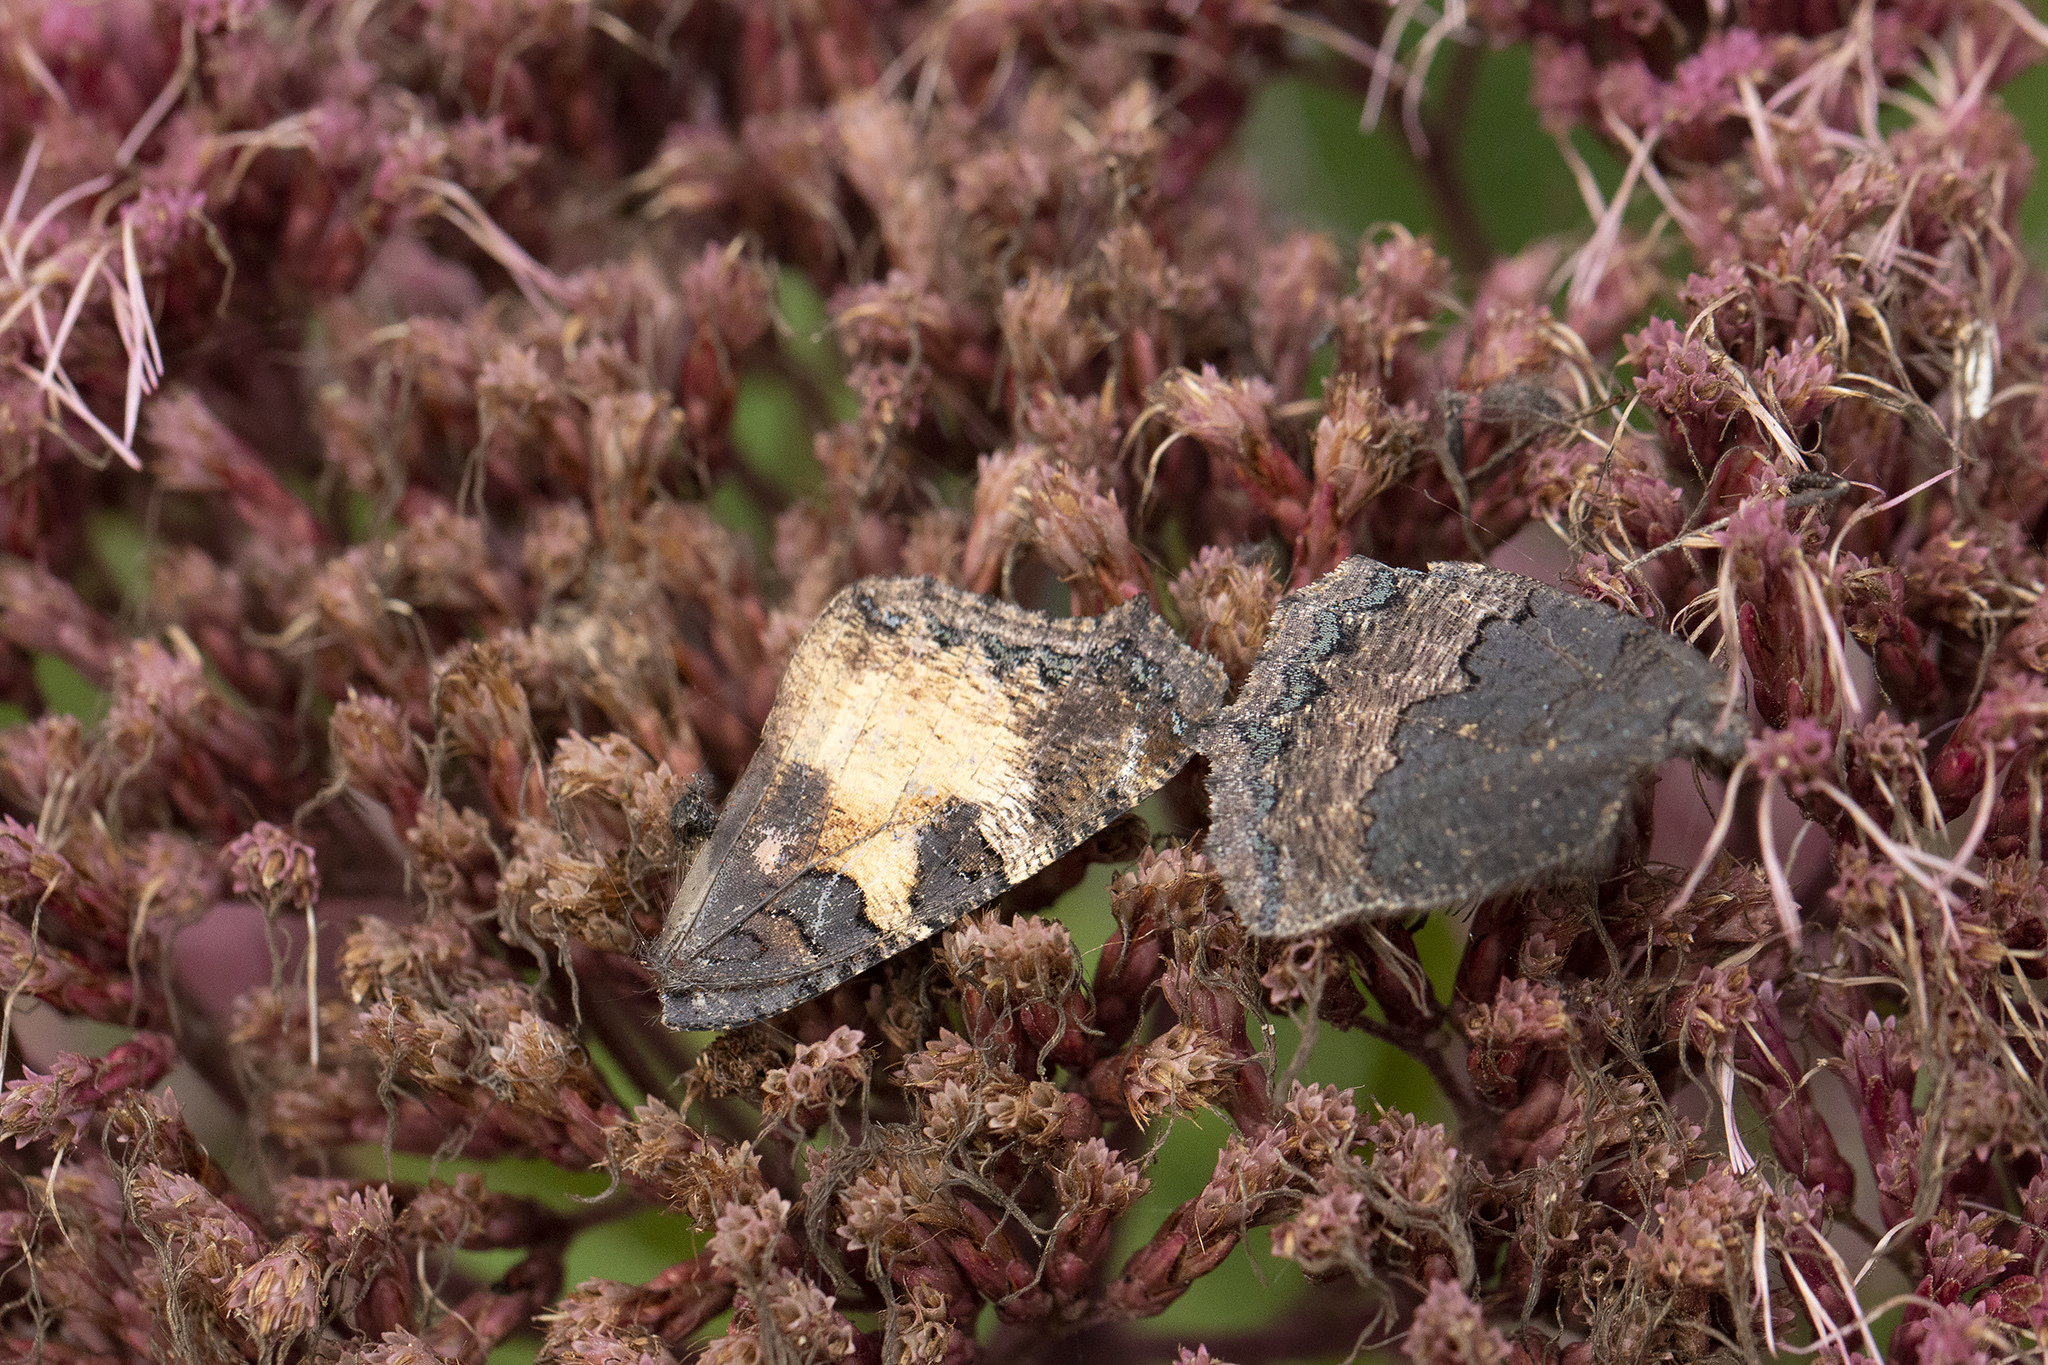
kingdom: Animalia
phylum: Arthropoda
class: Insecta
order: Lepidoptera
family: Nymphalidae
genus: Aglais
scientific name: Aglais urticae
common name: Small tortoiseshell
